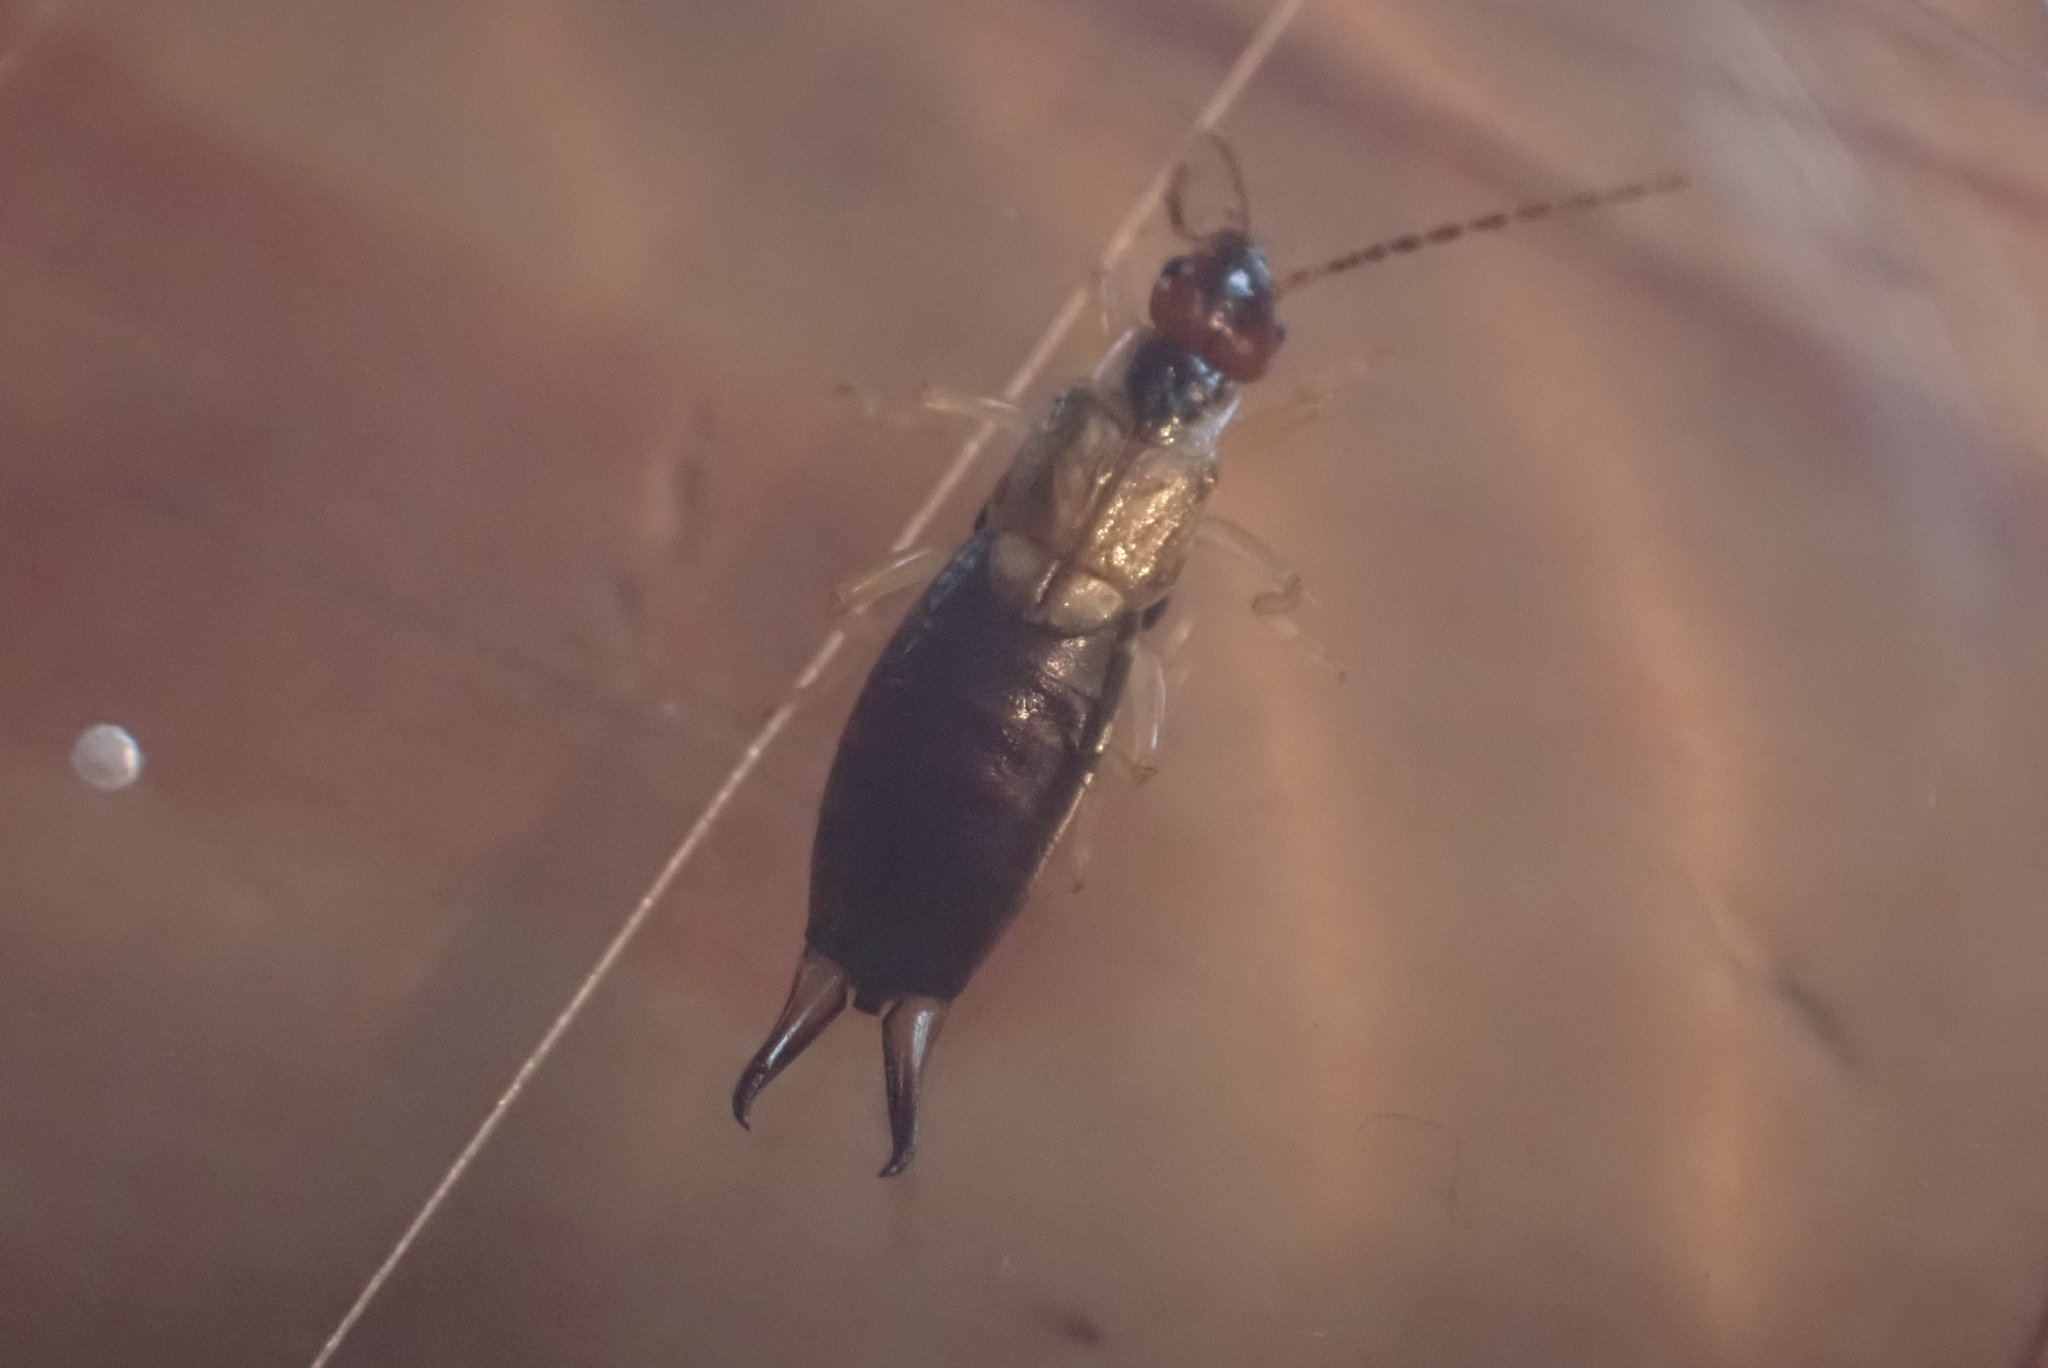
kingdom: Animalia
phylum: Arthropoda
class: Insecta
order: Dermaptera
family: Forficulidae
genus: Forficula
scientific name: Forficula
